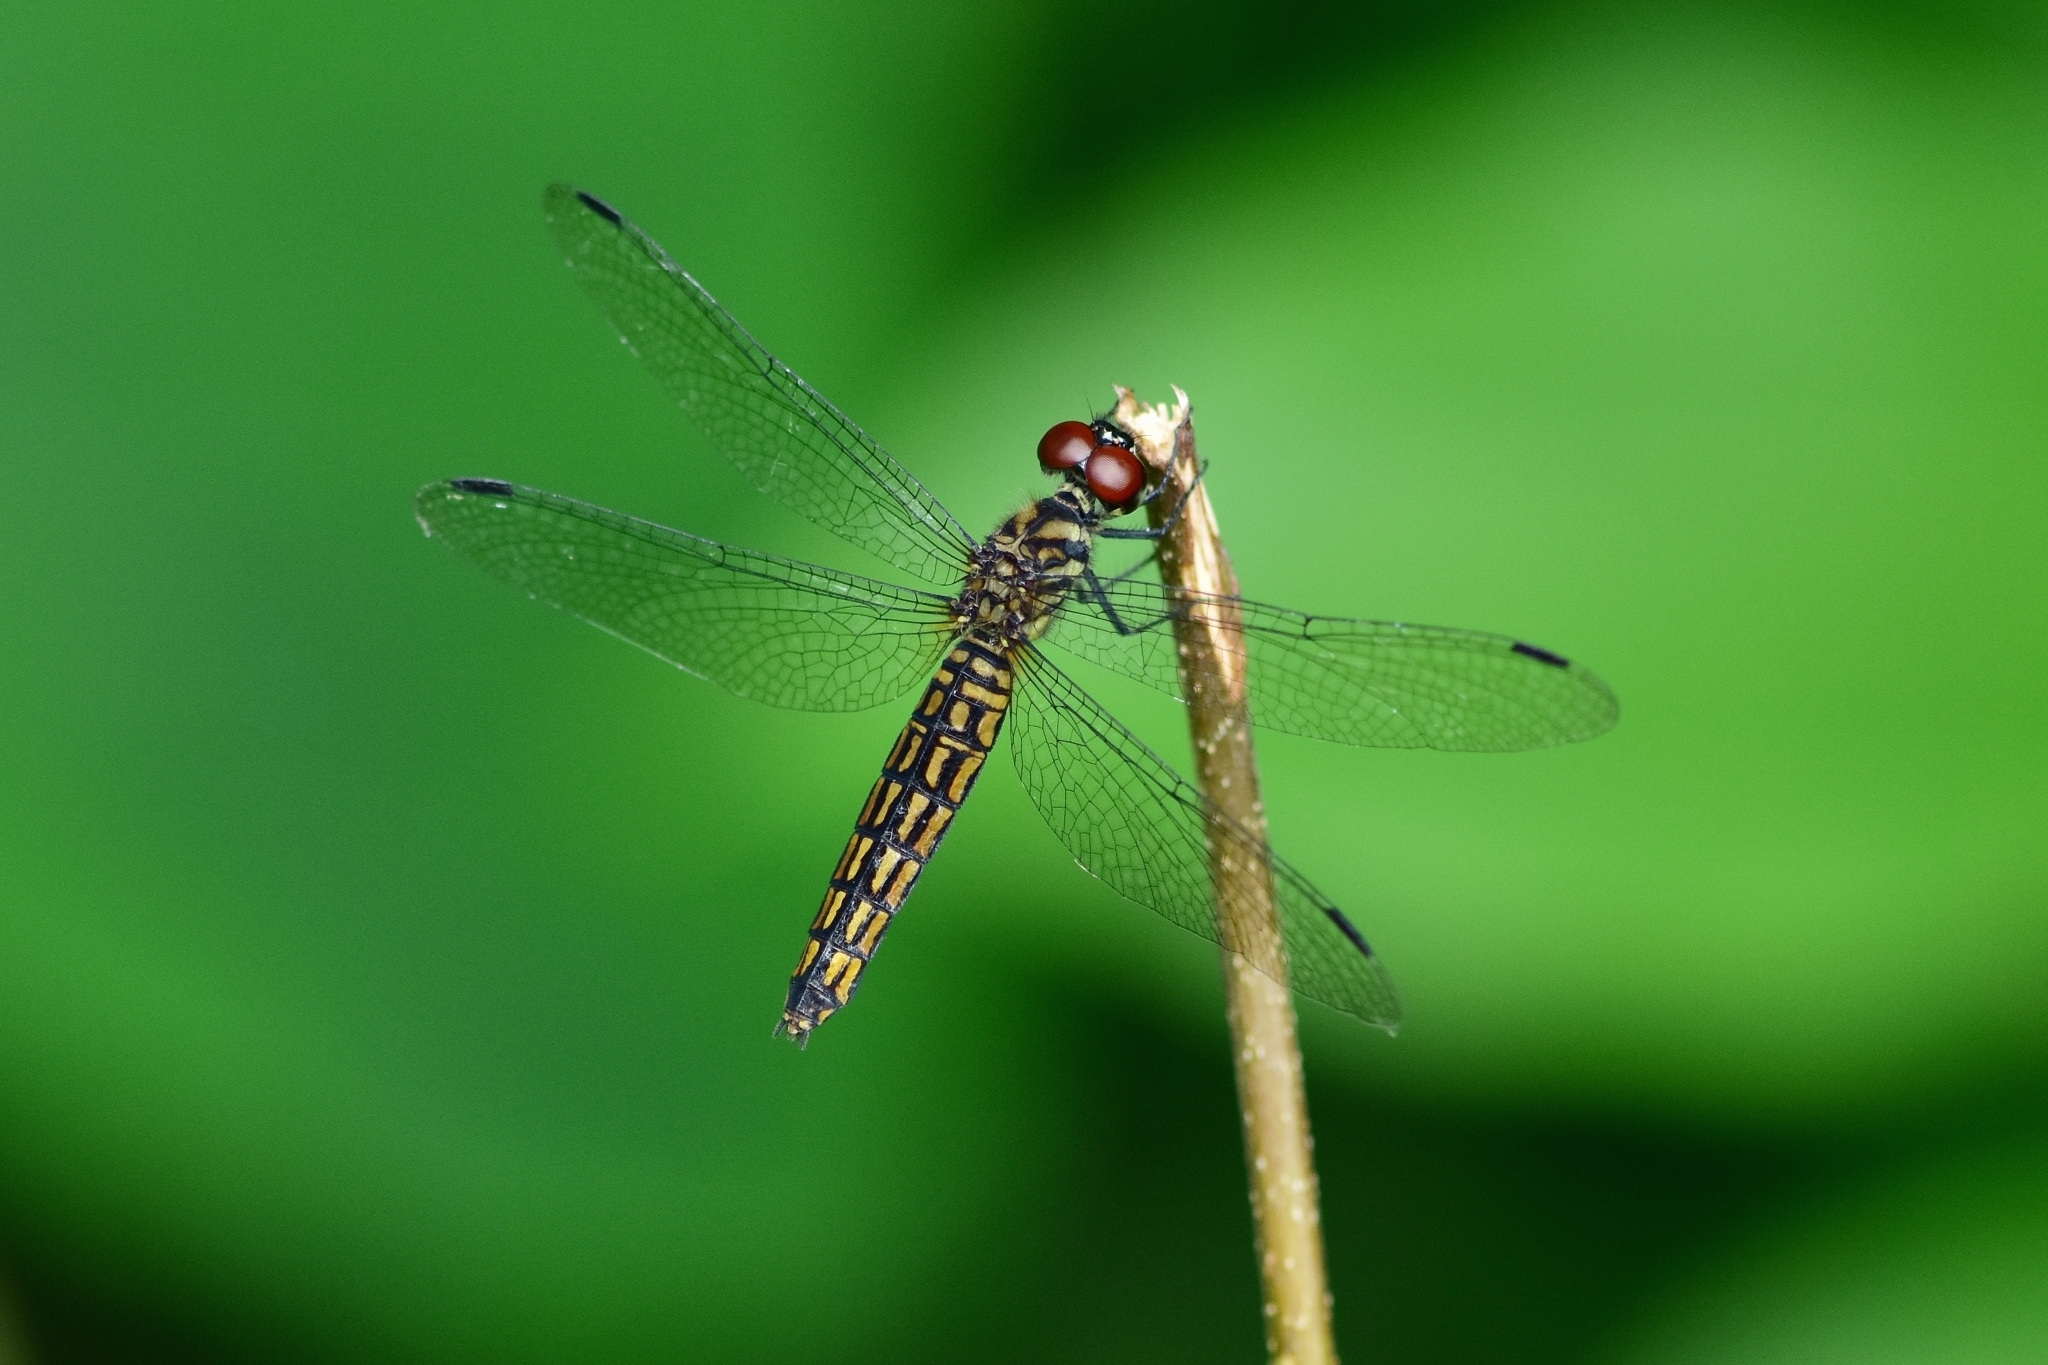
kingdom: Animalia
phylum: Arthropoda
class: Insecta
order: Odonata
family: Libellulidae
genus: Lyriothemis
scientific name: Lyriothemis acigastra
